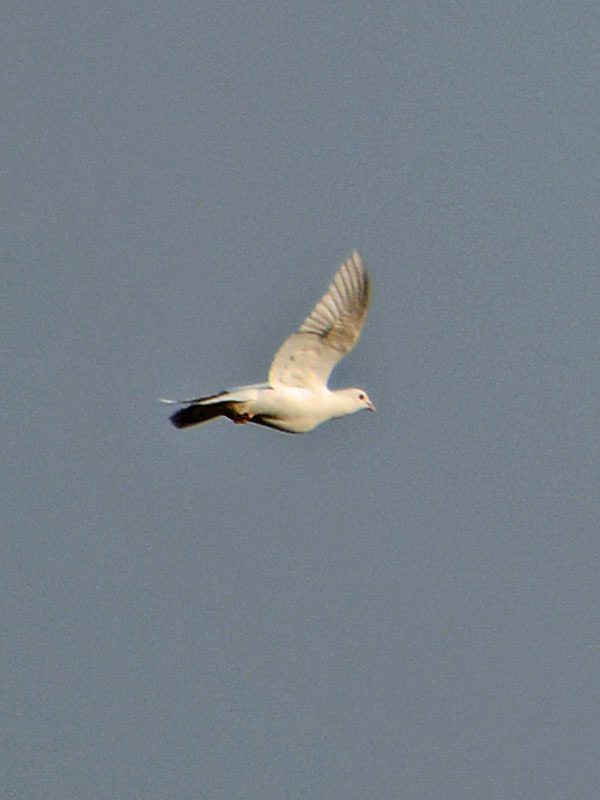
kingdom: Animalia
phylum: Chordata
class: Aves
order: Columbiformes
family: Columbidae
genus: Columba
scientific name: Columba livia
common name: Rock pigeon
